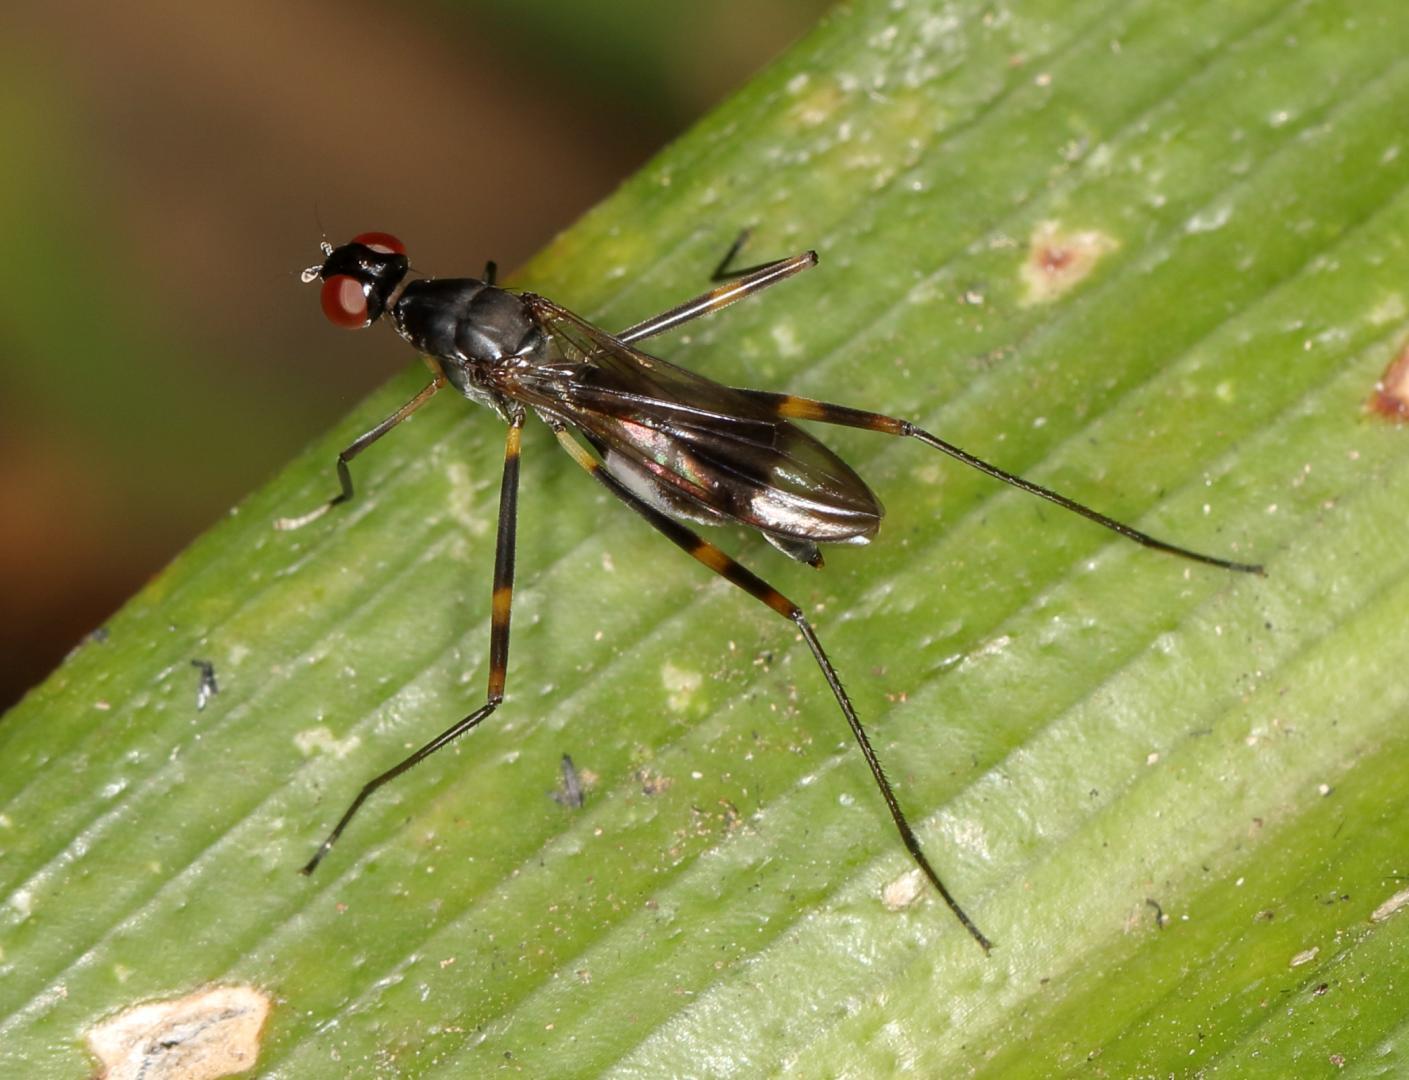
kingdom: Animalia
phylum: Arthropoda
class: Insecta
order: Diptera
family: Micropezidae
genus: Hybobata
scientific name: Hybobata
